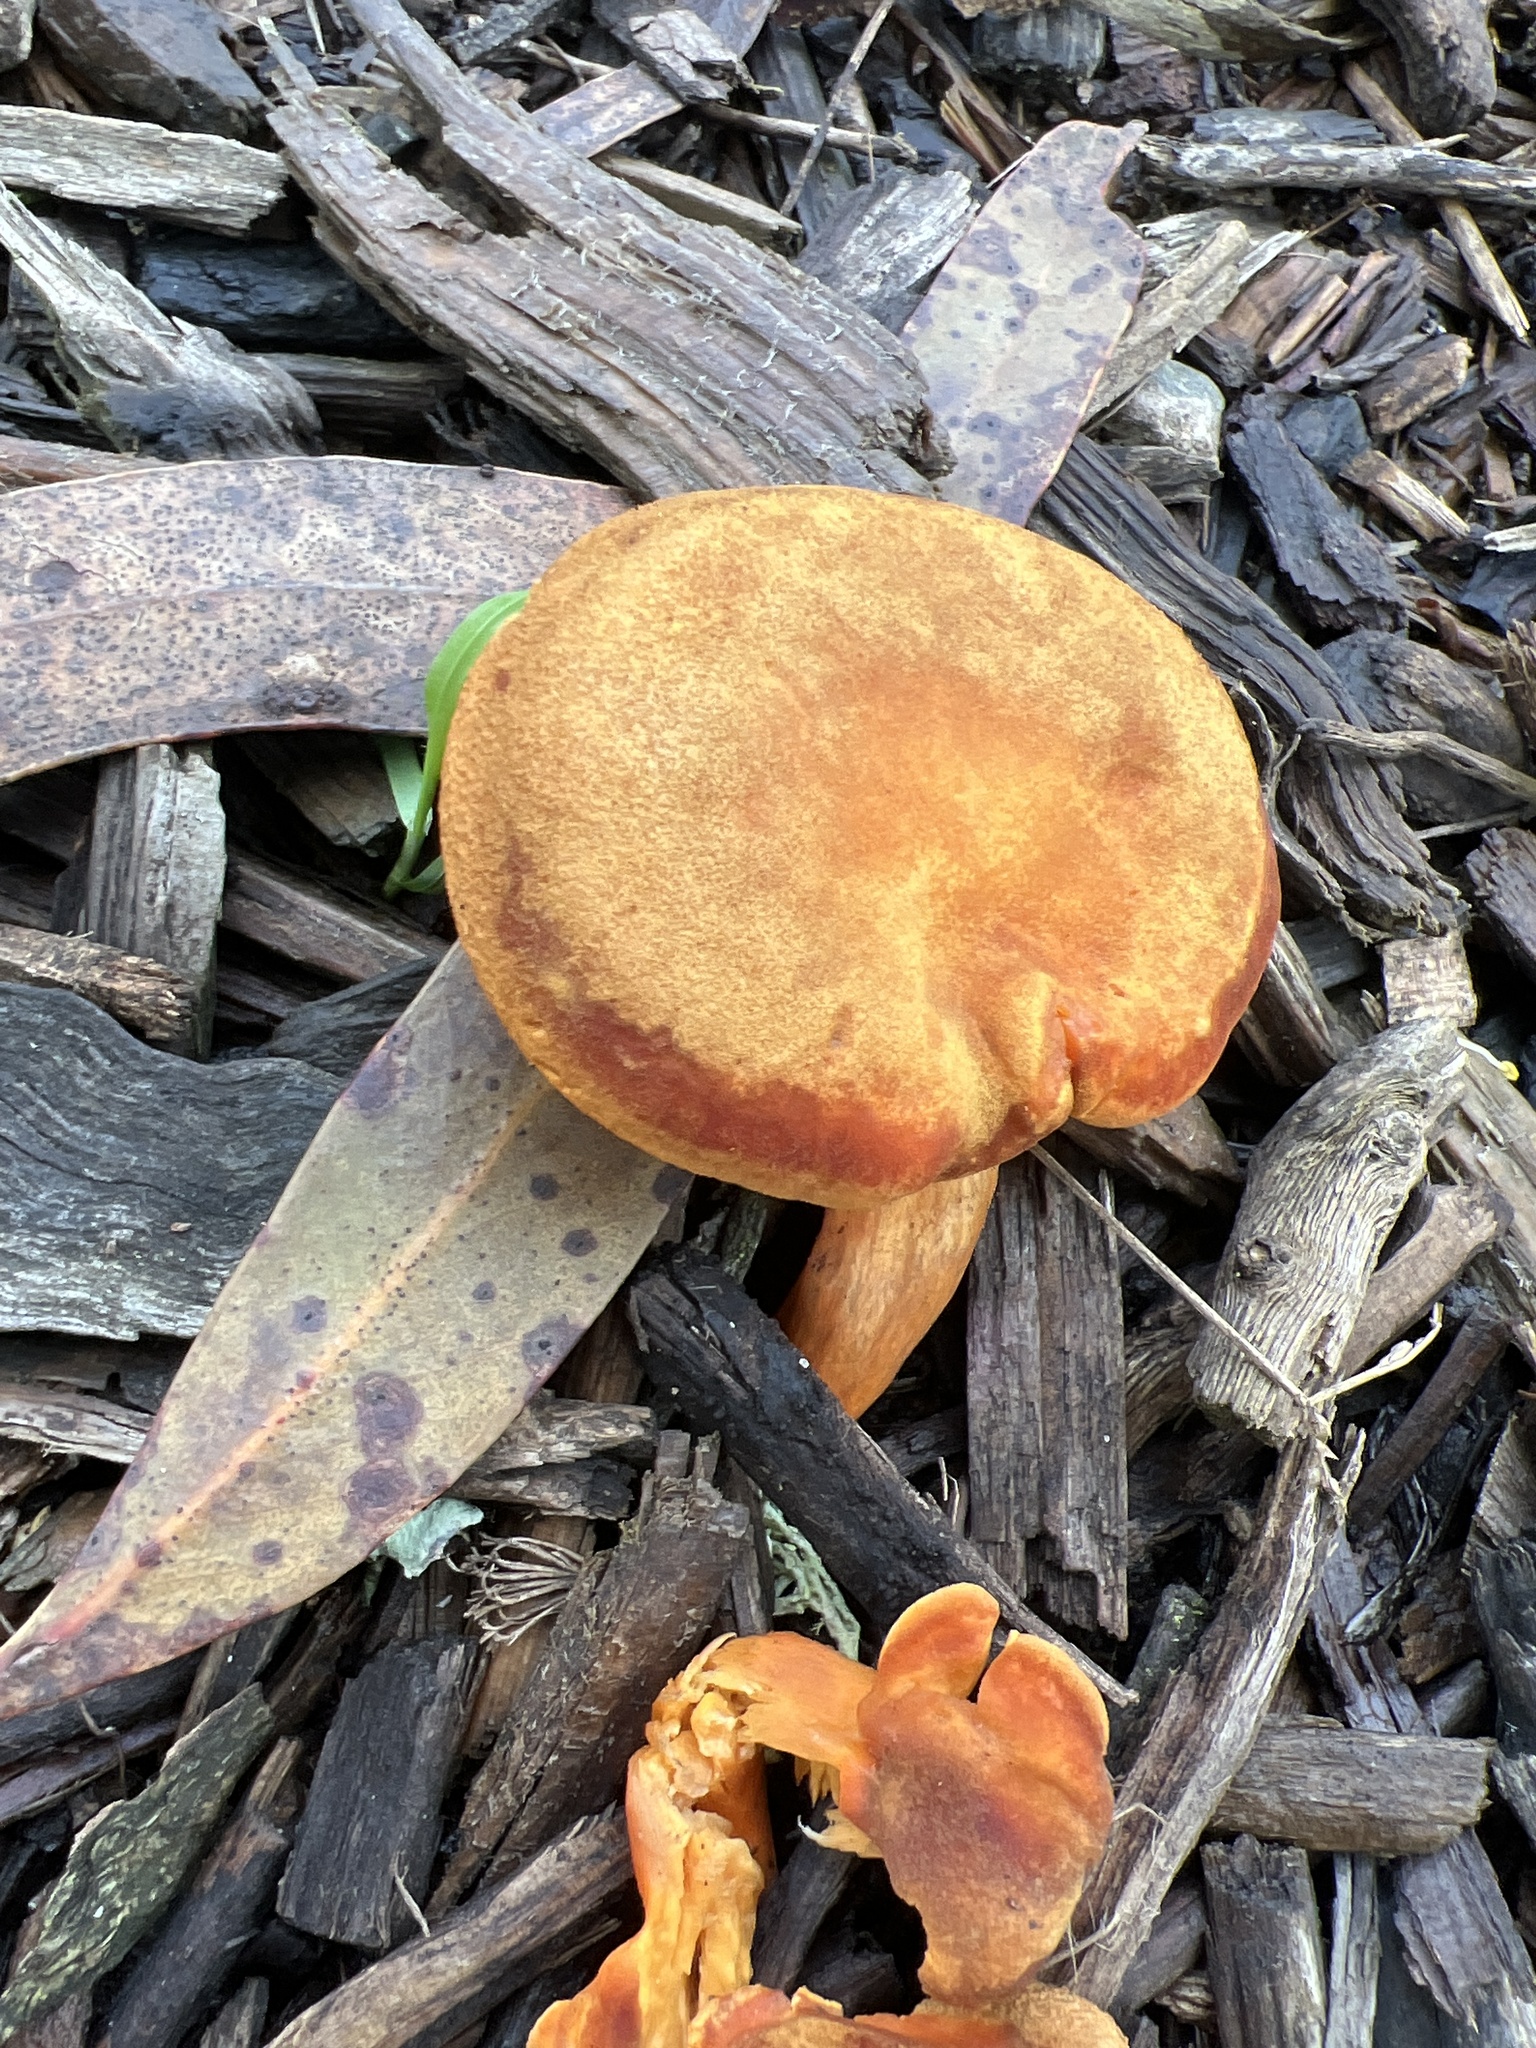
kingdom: Fungi
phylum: Basidiomycota
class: Agaricomycetes
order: Boletales
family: Hygrophoropsidaceae
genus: Hygrophoropsis
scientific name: Hygrophoropsis aurantiaca
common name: False chanterelle
